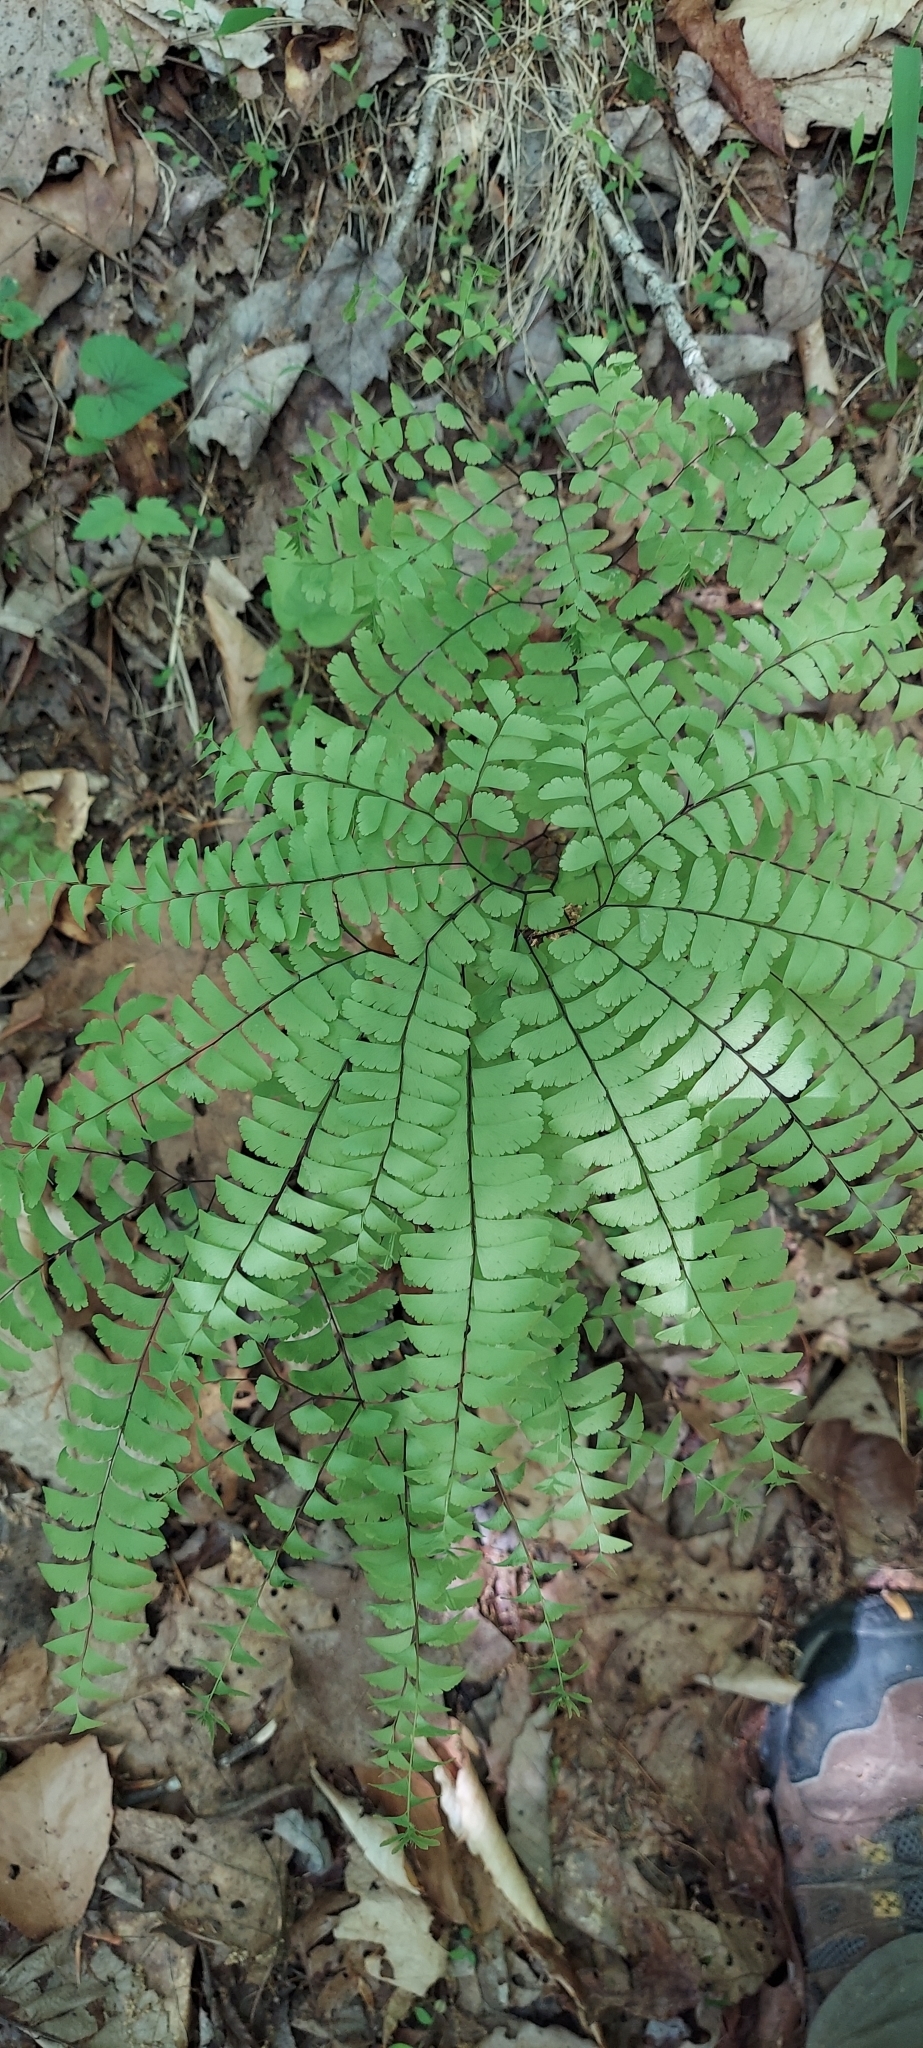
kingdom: Plantae
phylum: Tracheophyta
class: Polypodiopsida
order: Polypodiales
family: Pteridaceae
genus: Adiantum
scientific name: Adiantum pedatum
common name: Five-finger fern
